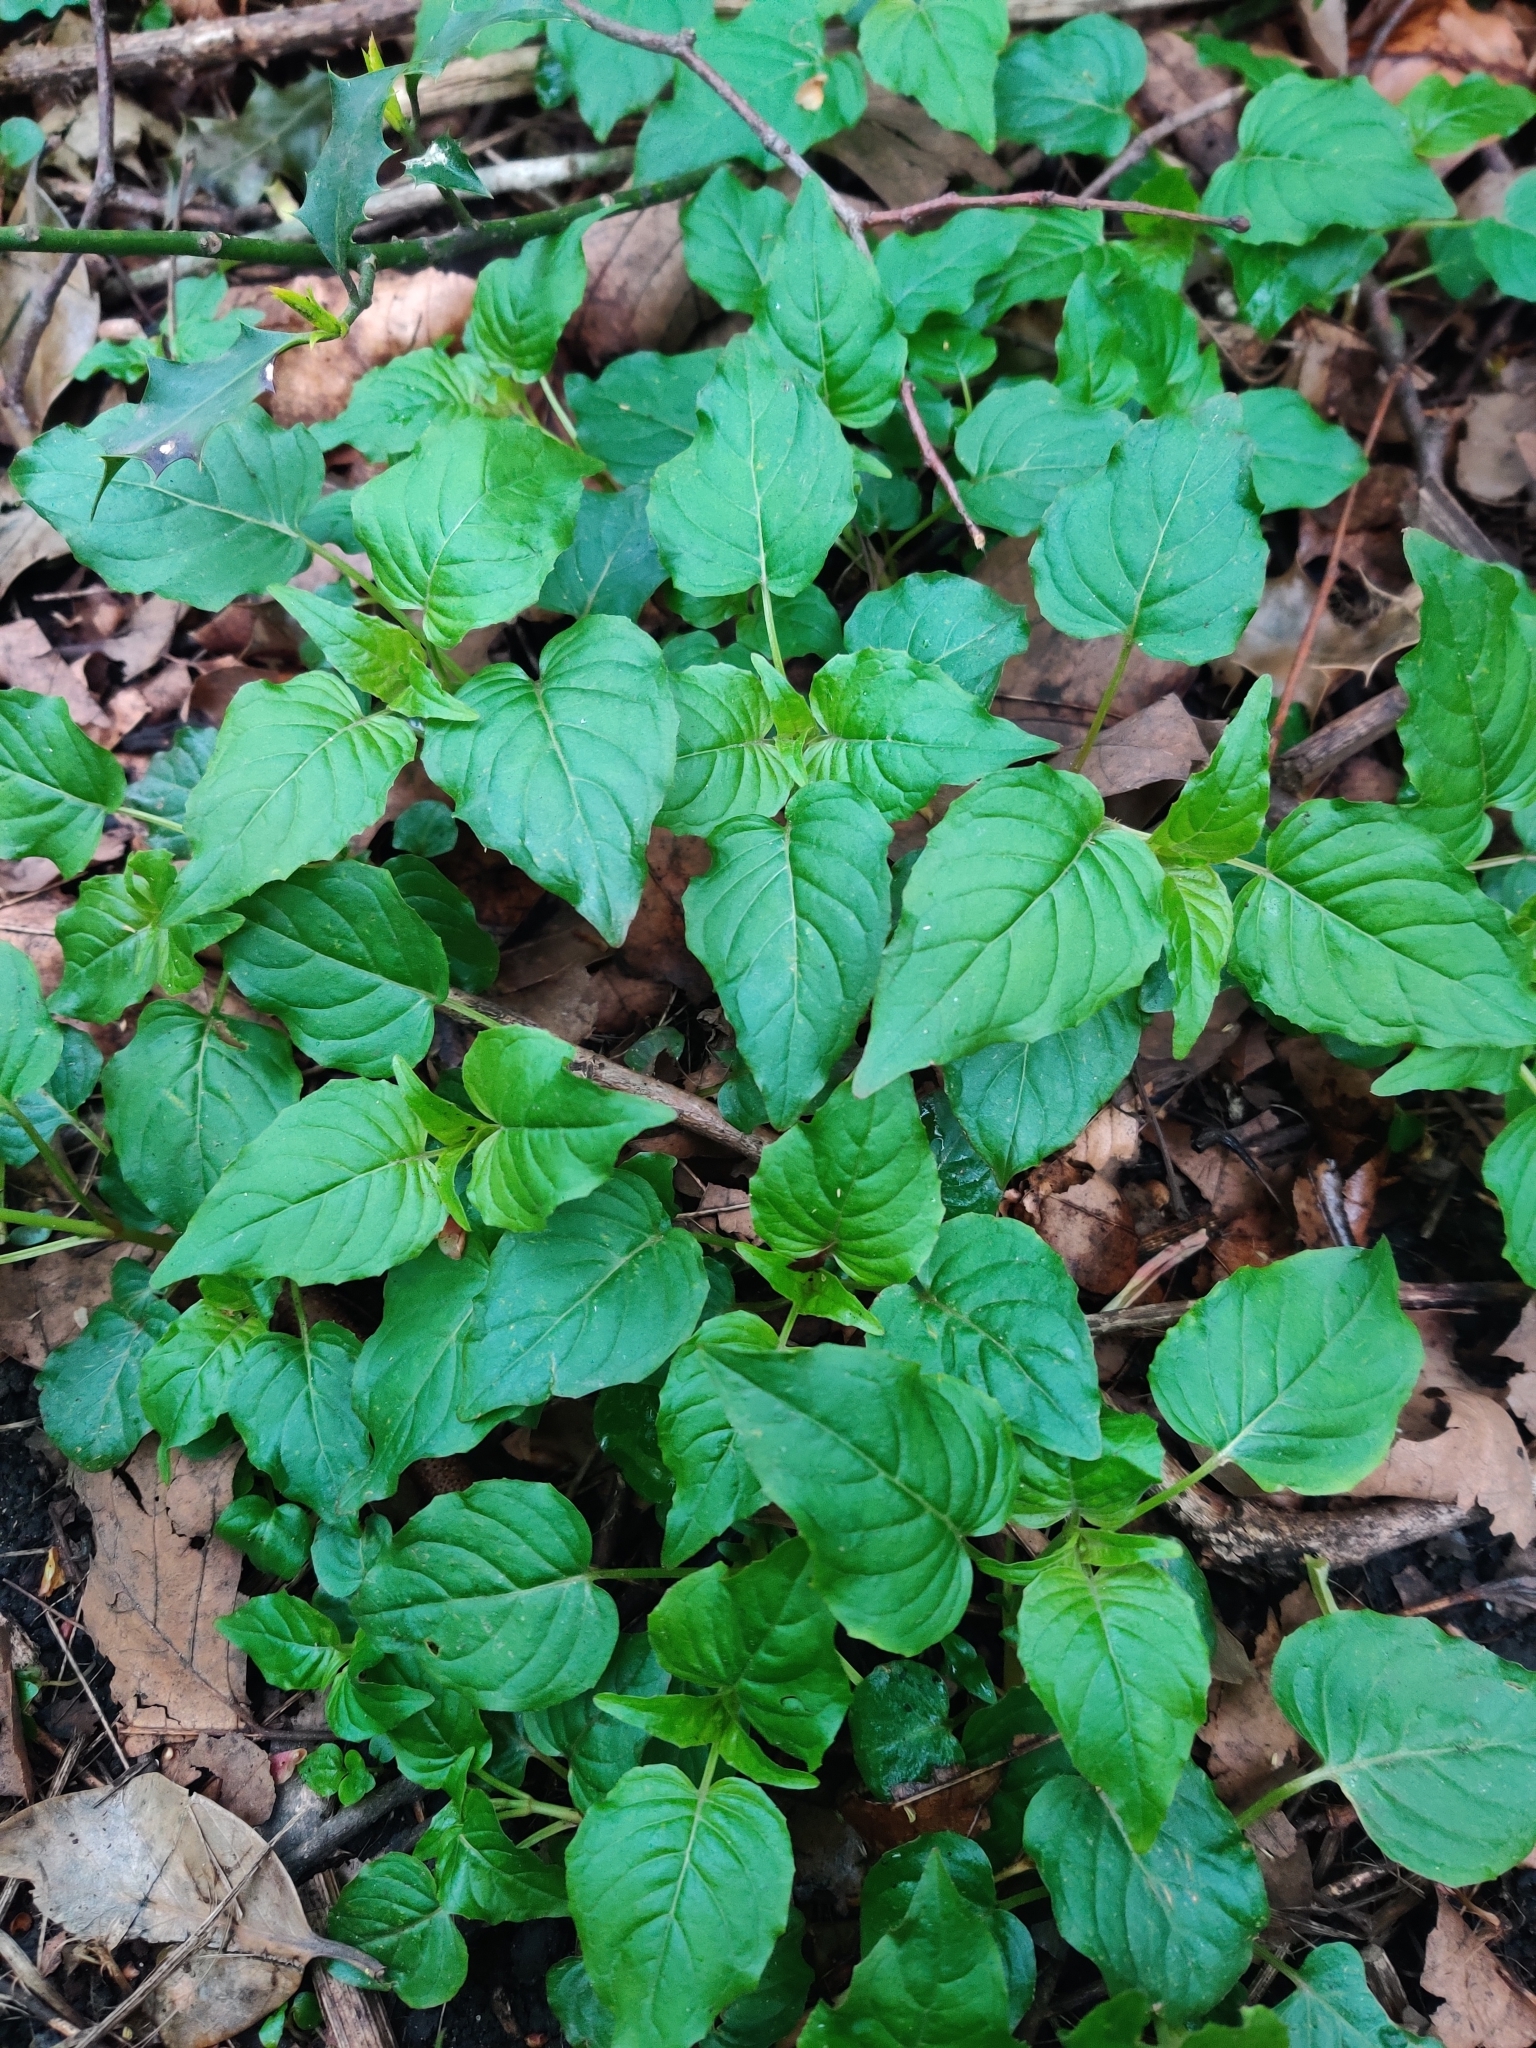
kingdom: Plantae
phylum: Tracheophyta
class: Magnoliopsida
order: Myrtales
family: Onagraceae
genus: Circaea
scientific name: Circaea lutetiana
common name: Enchanter's-nightshade
